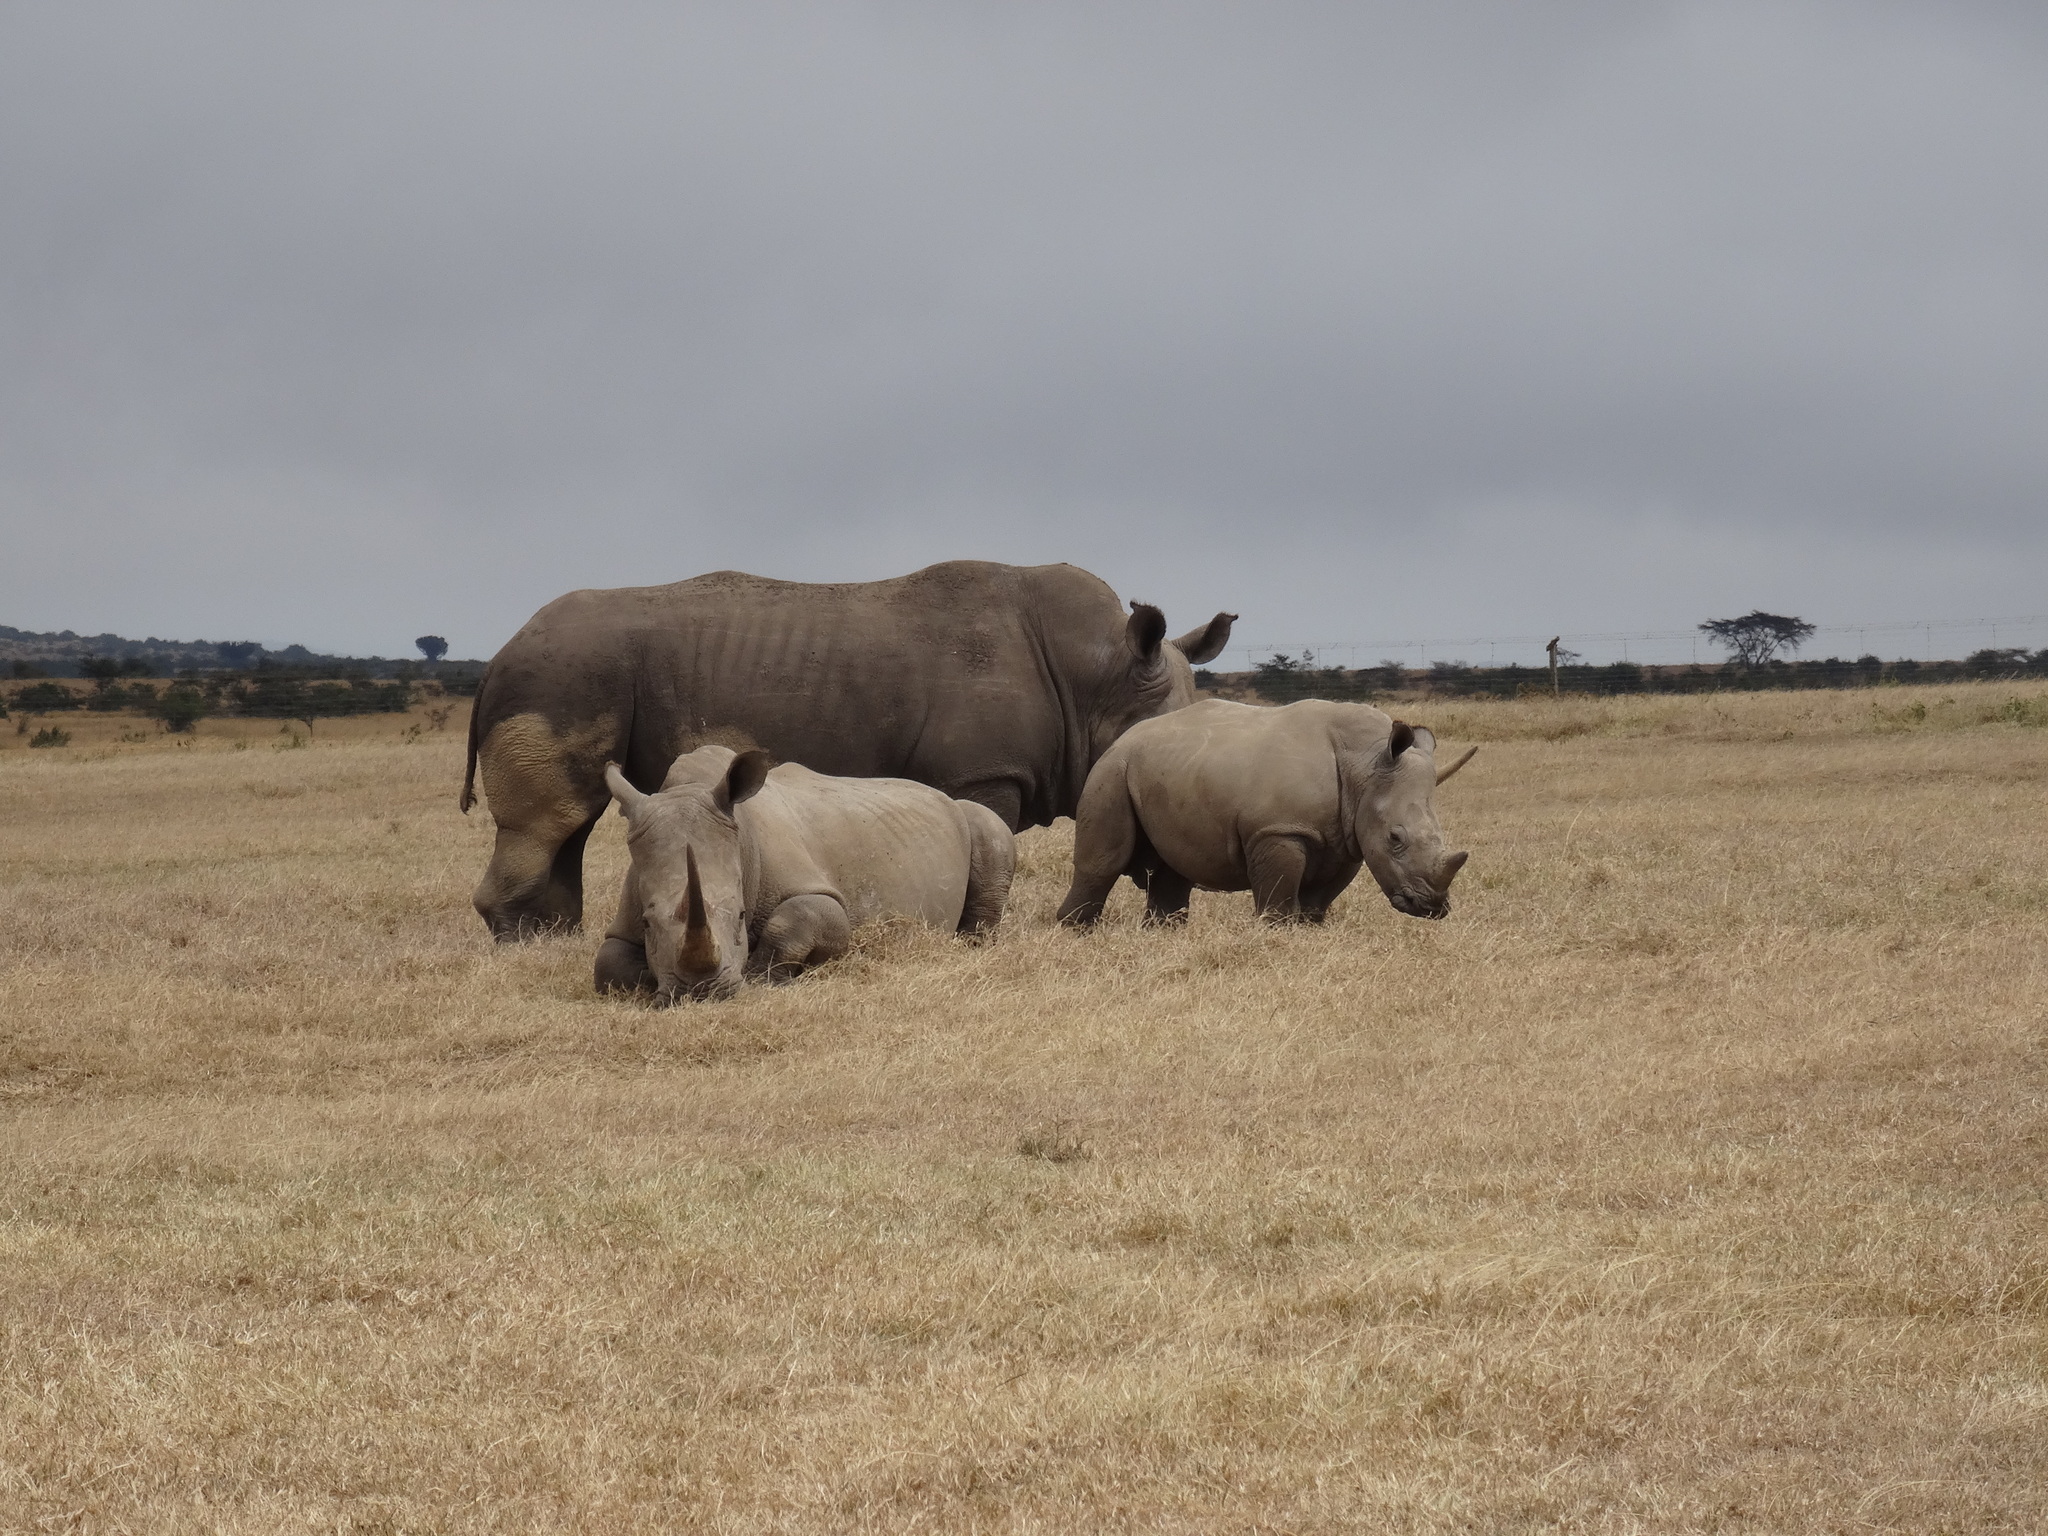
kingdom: Animalia
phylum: Chordata
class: Mammalia
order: Perissodactyla
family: Rhinocerotidae
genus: Ceratotherium
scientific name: Ceratotherium simum
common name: White rhinoceros
